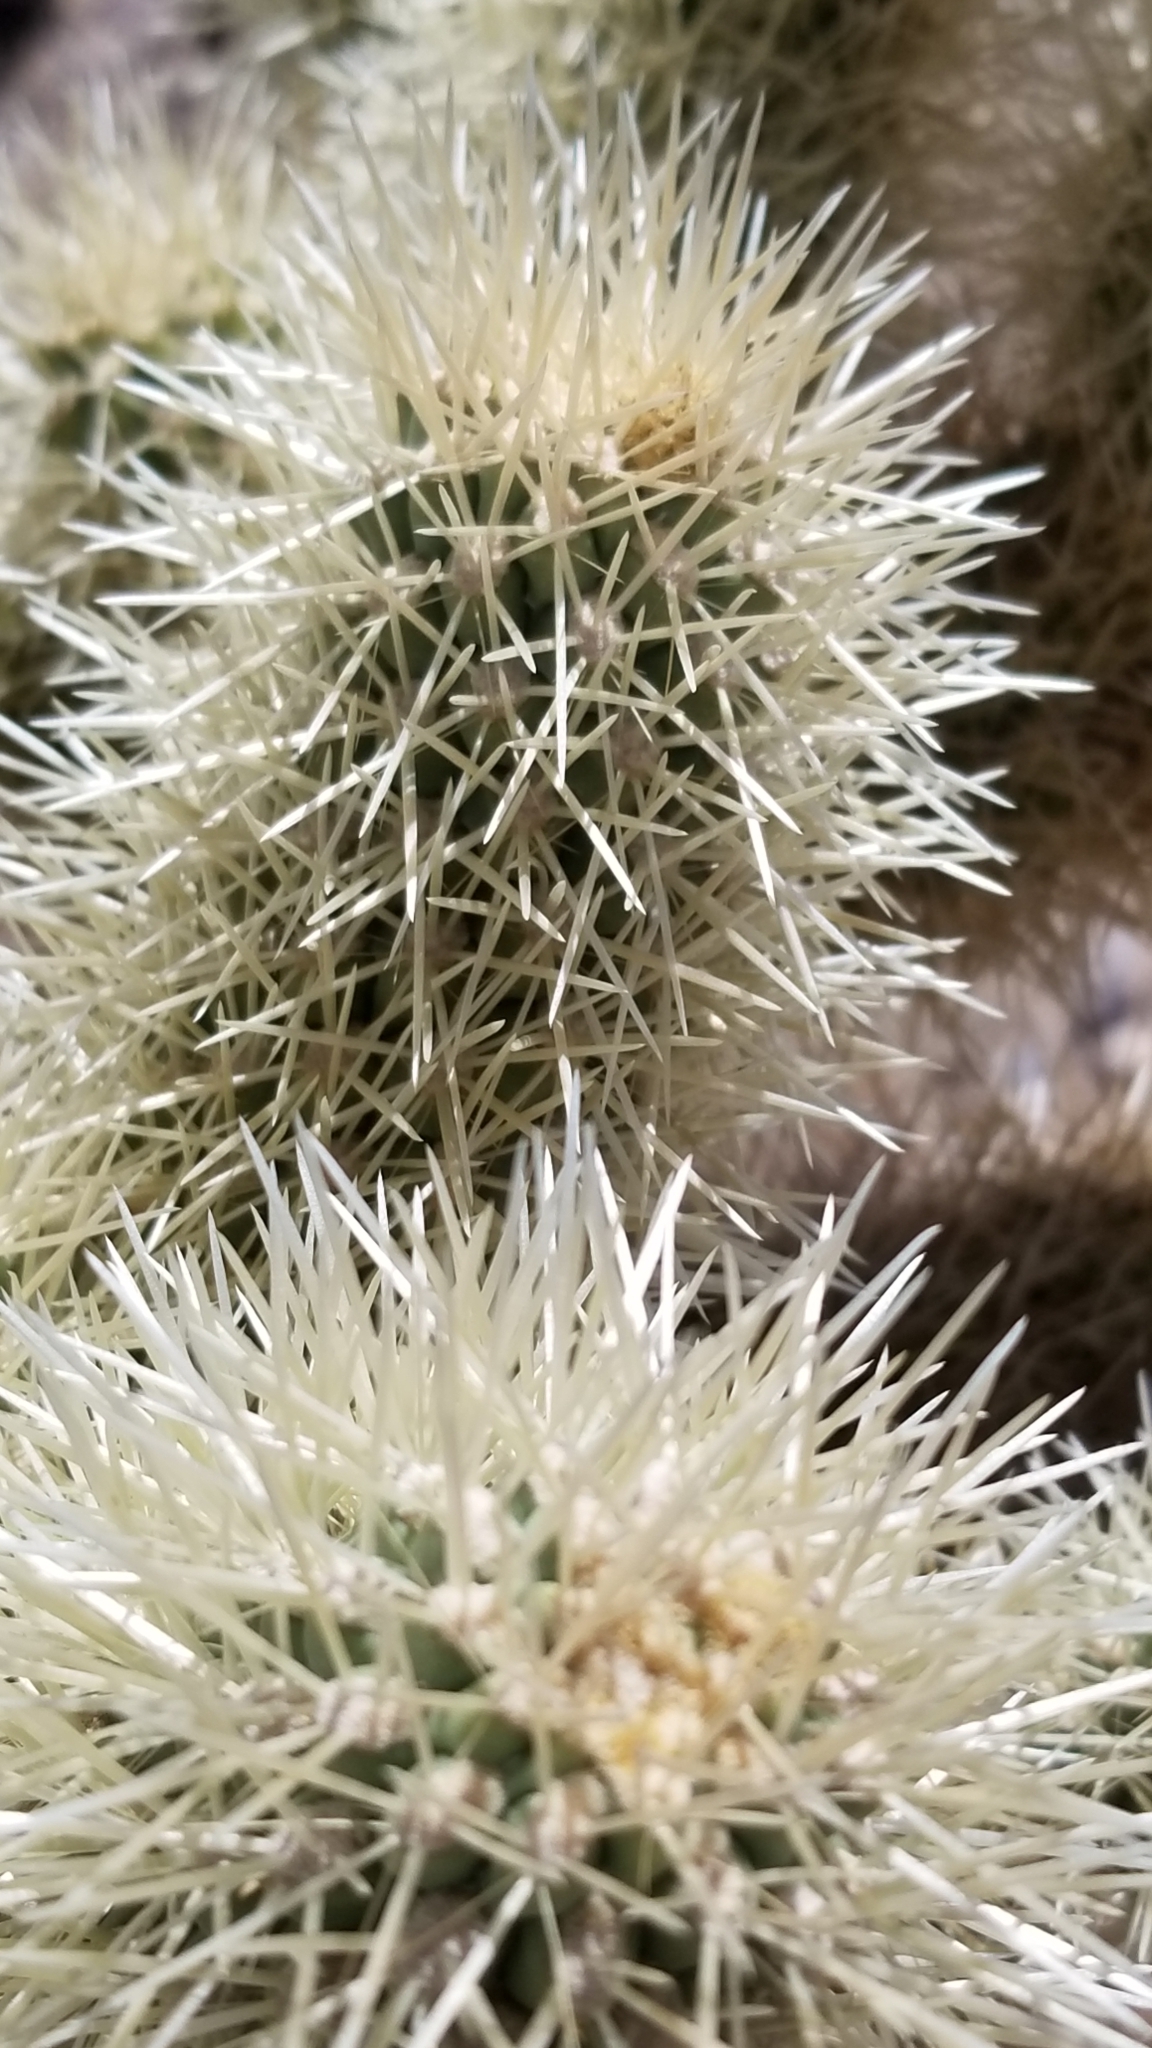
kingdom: Plantae
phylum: Tracheophyta
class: Magnoliopsida
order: Caryophyllales
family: Cactaceae
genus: Cylindropuntia
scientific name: Cylindropuntia fosbergii
